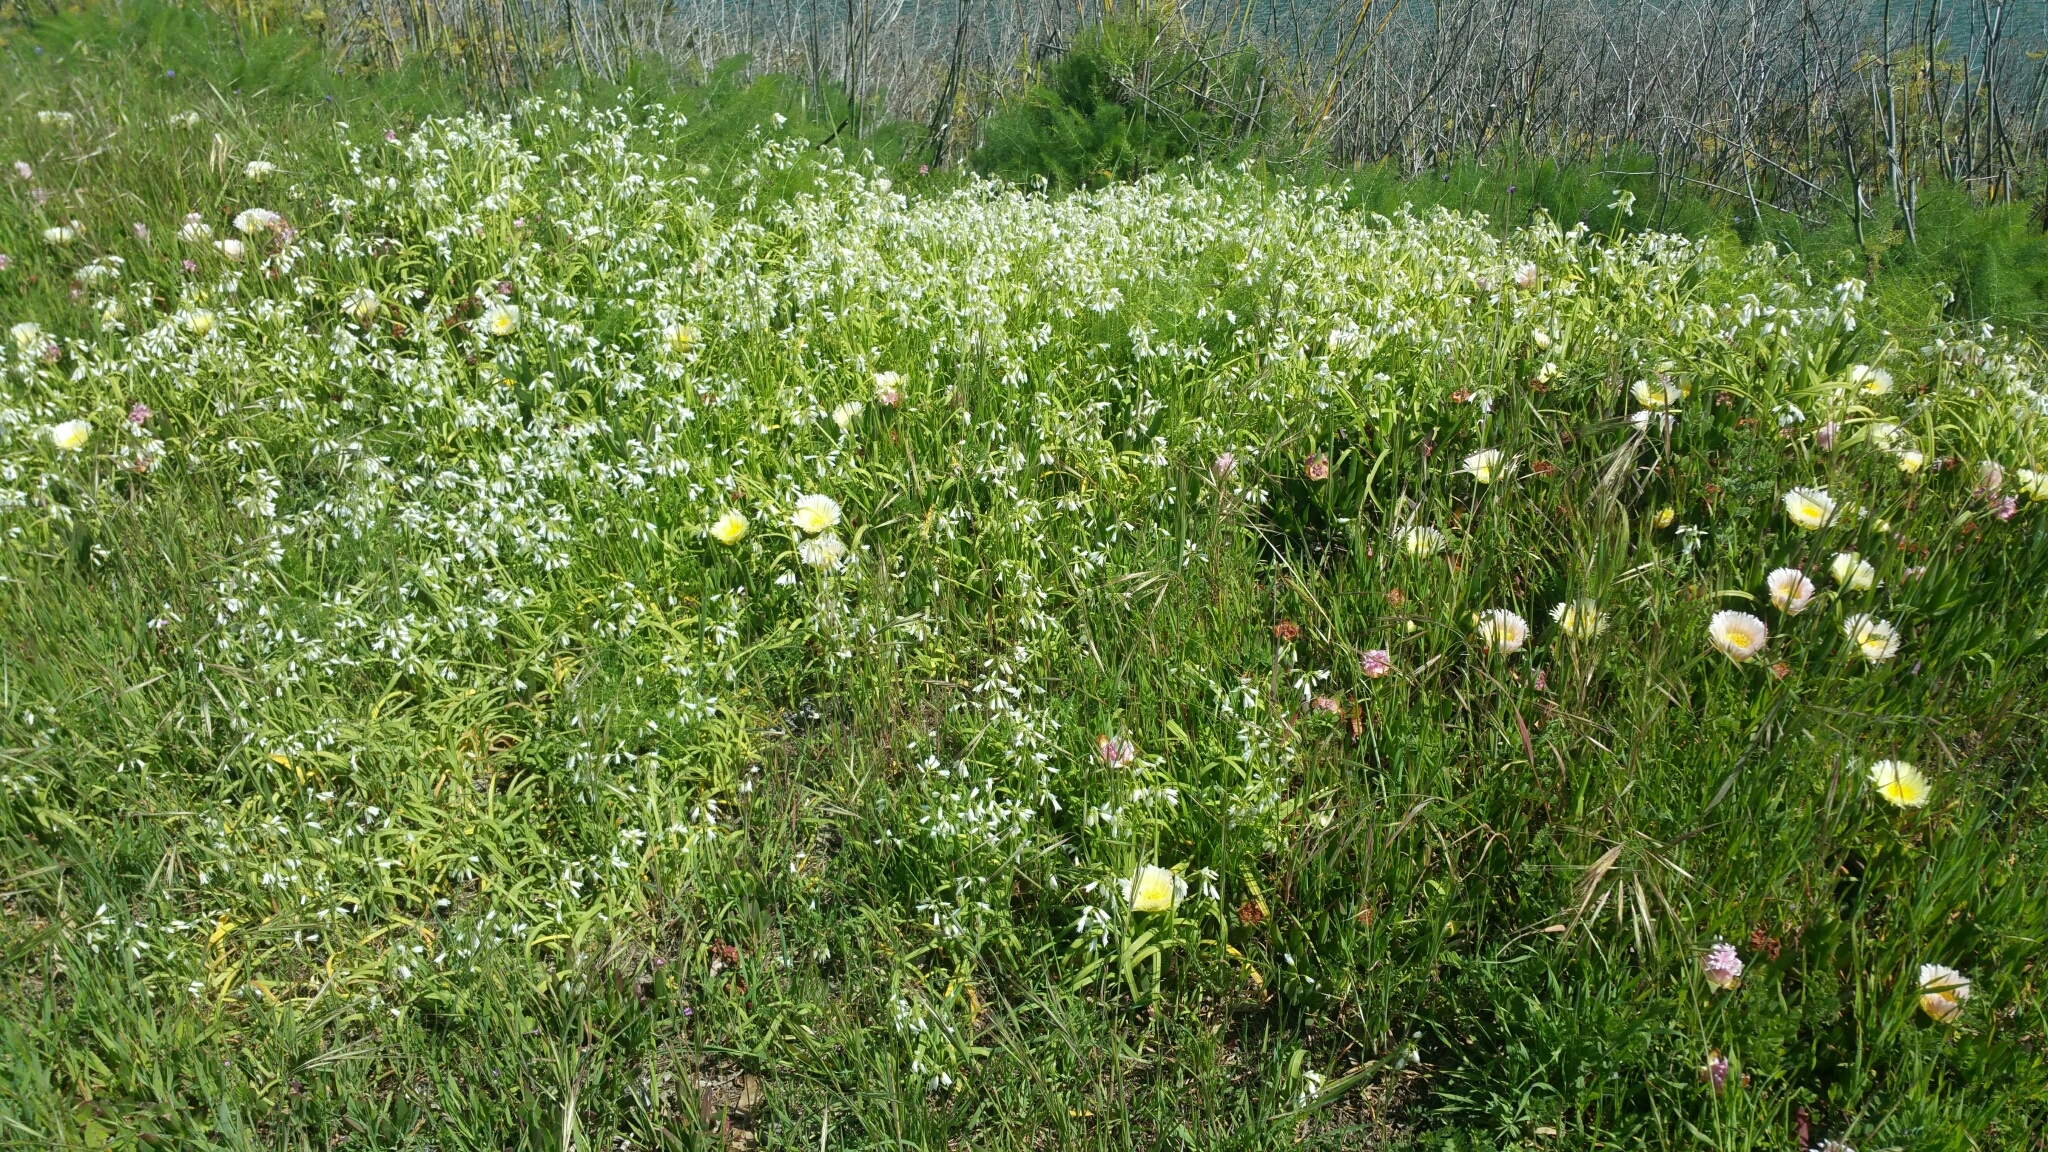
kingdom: Plantae
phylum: Tracheophyta
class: Liliopsida
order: Asparagales
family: Amaryllidaceae
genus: Allium
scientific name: Allium triquetrum
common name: Three-cornered garlic
